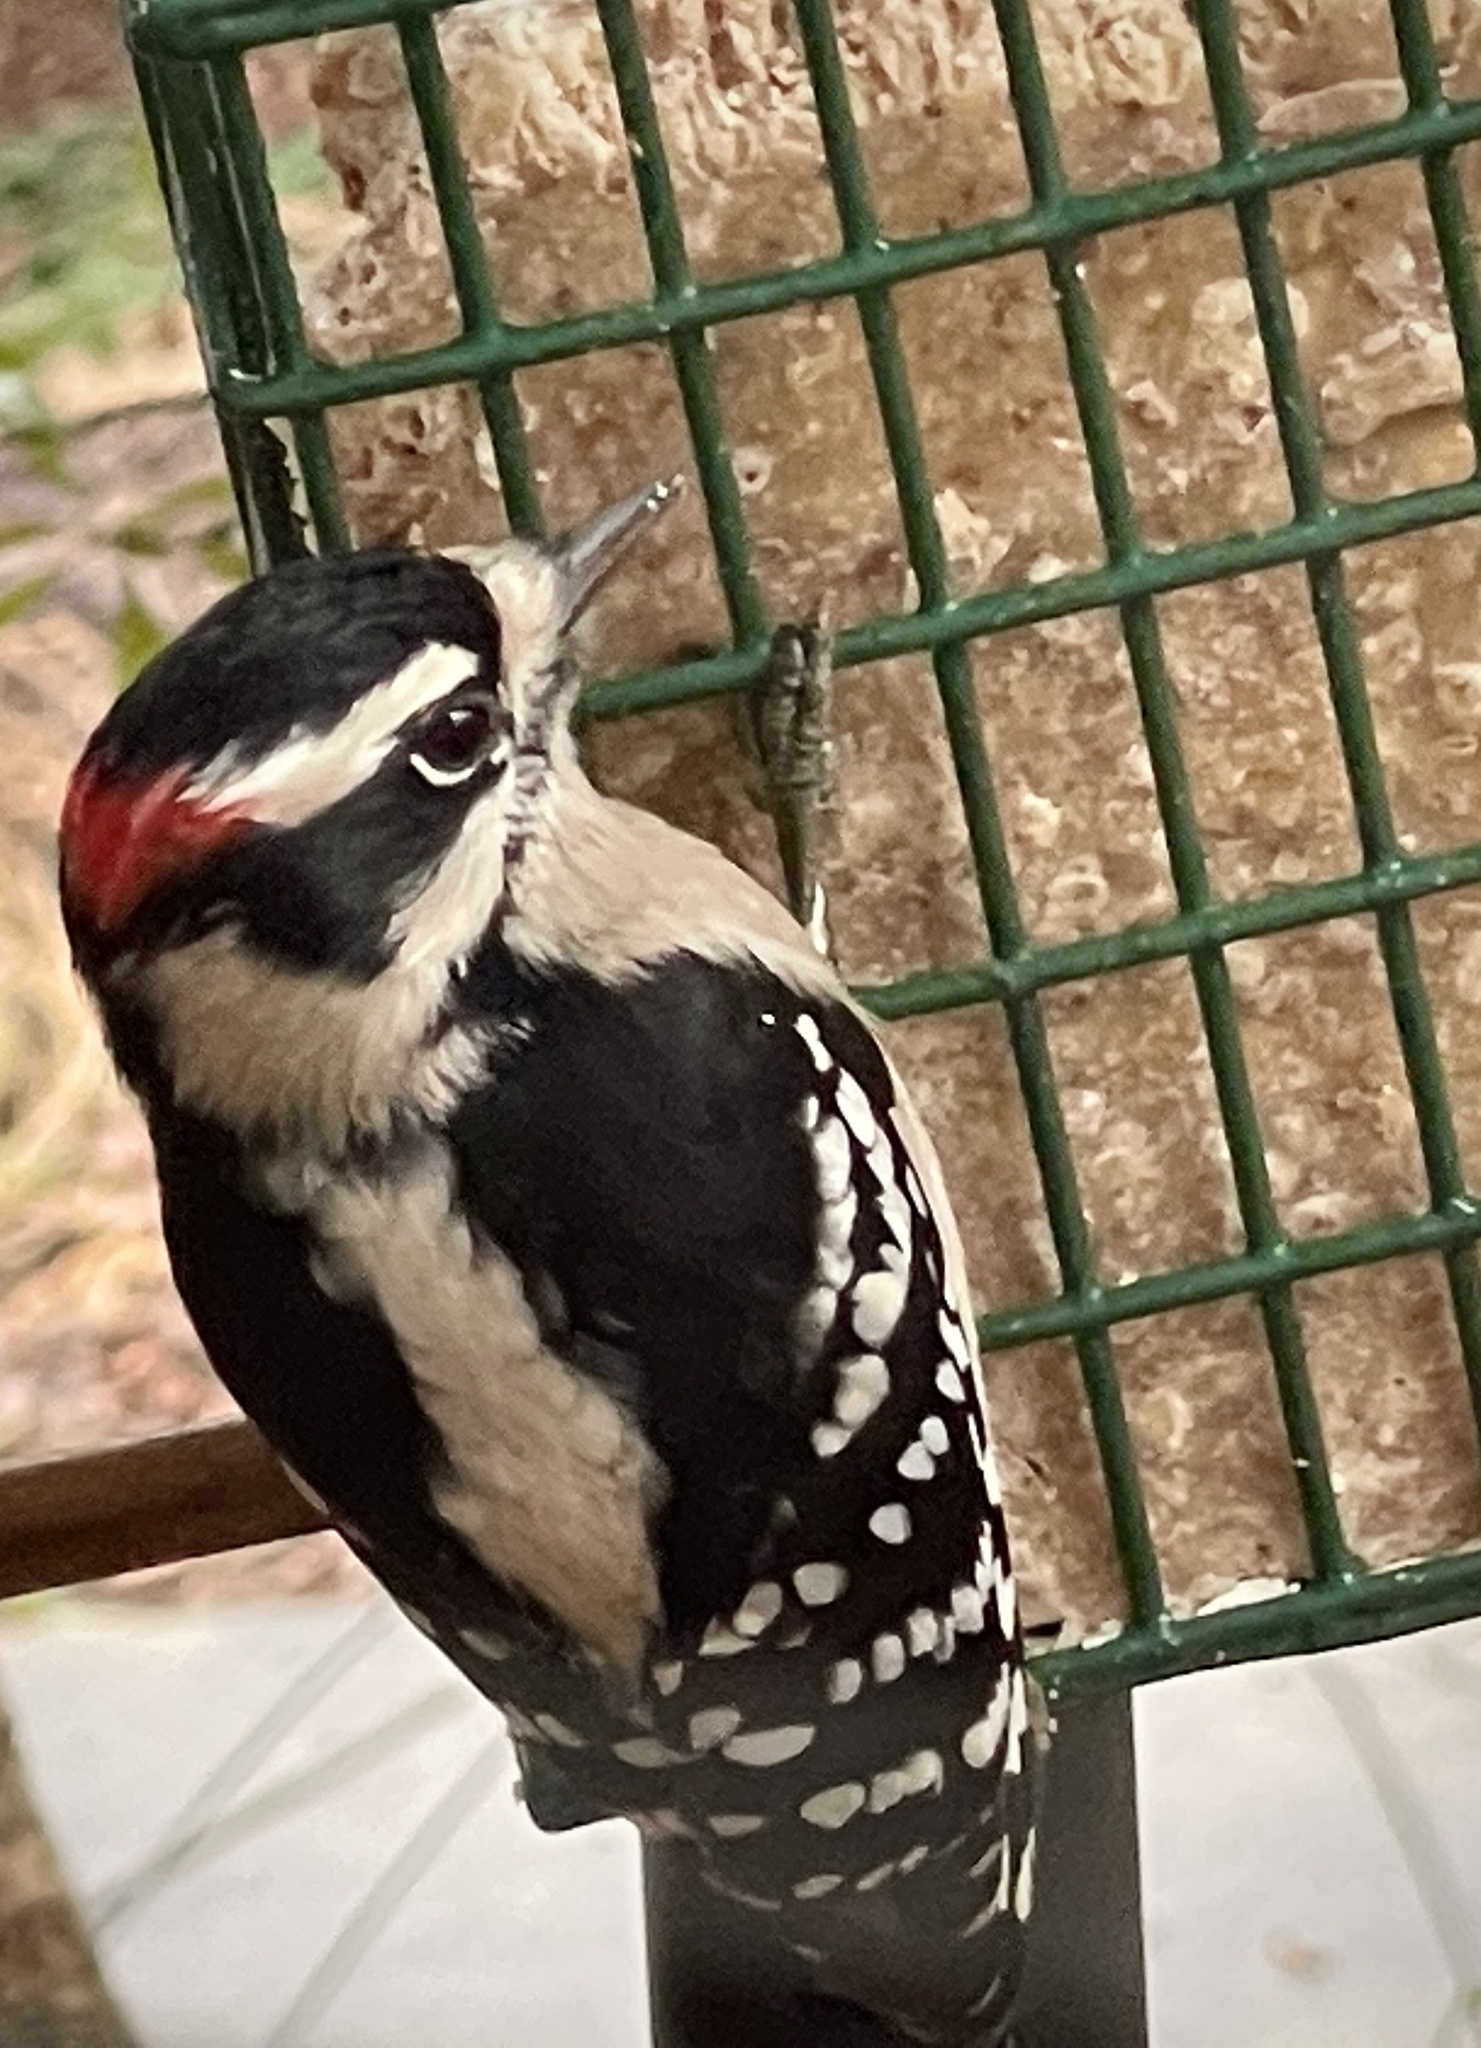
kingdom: Animalia
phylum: Chordata
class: Aves
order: Piciformes
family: Picidae
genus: Dryobates
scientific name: Dryobates pubescens
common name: Downy woodpecker
